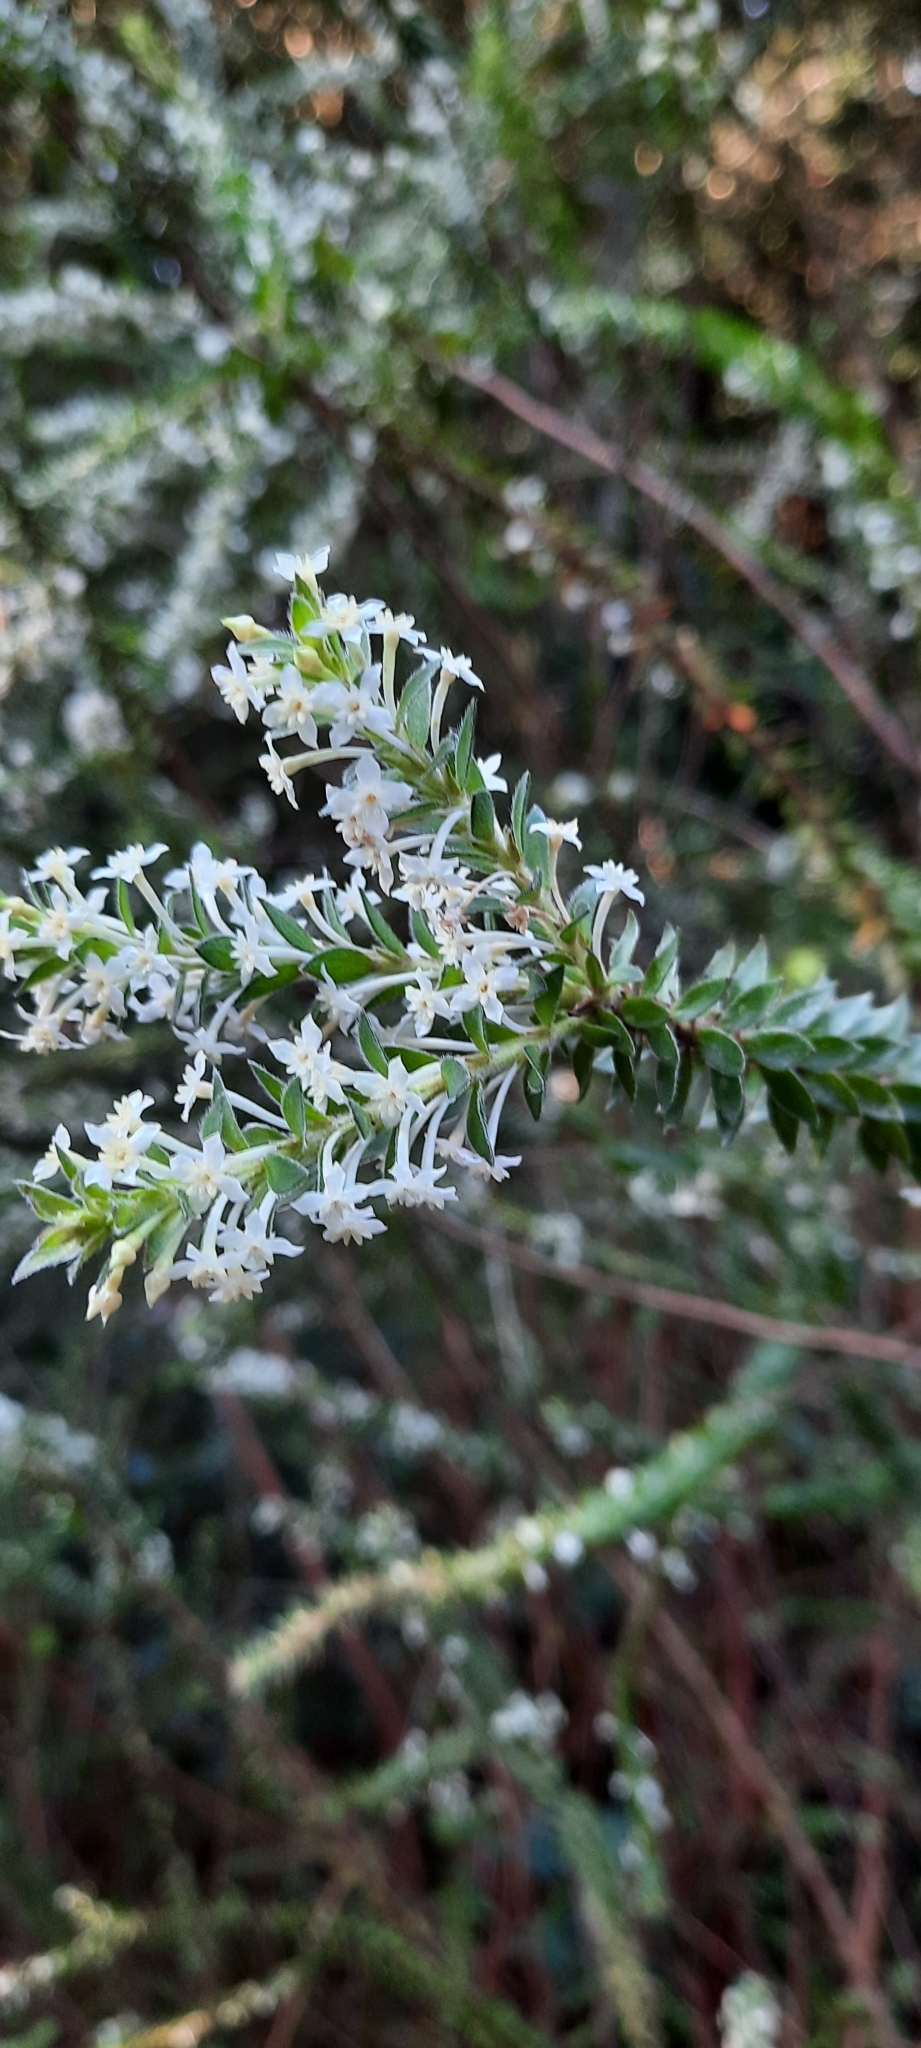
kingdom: Plantae
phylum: Tracheophyta
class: Magnoliopsida
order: Malvales
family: Thymelaeaceae
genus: Struthiola
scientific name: Struthiola hirsuta
